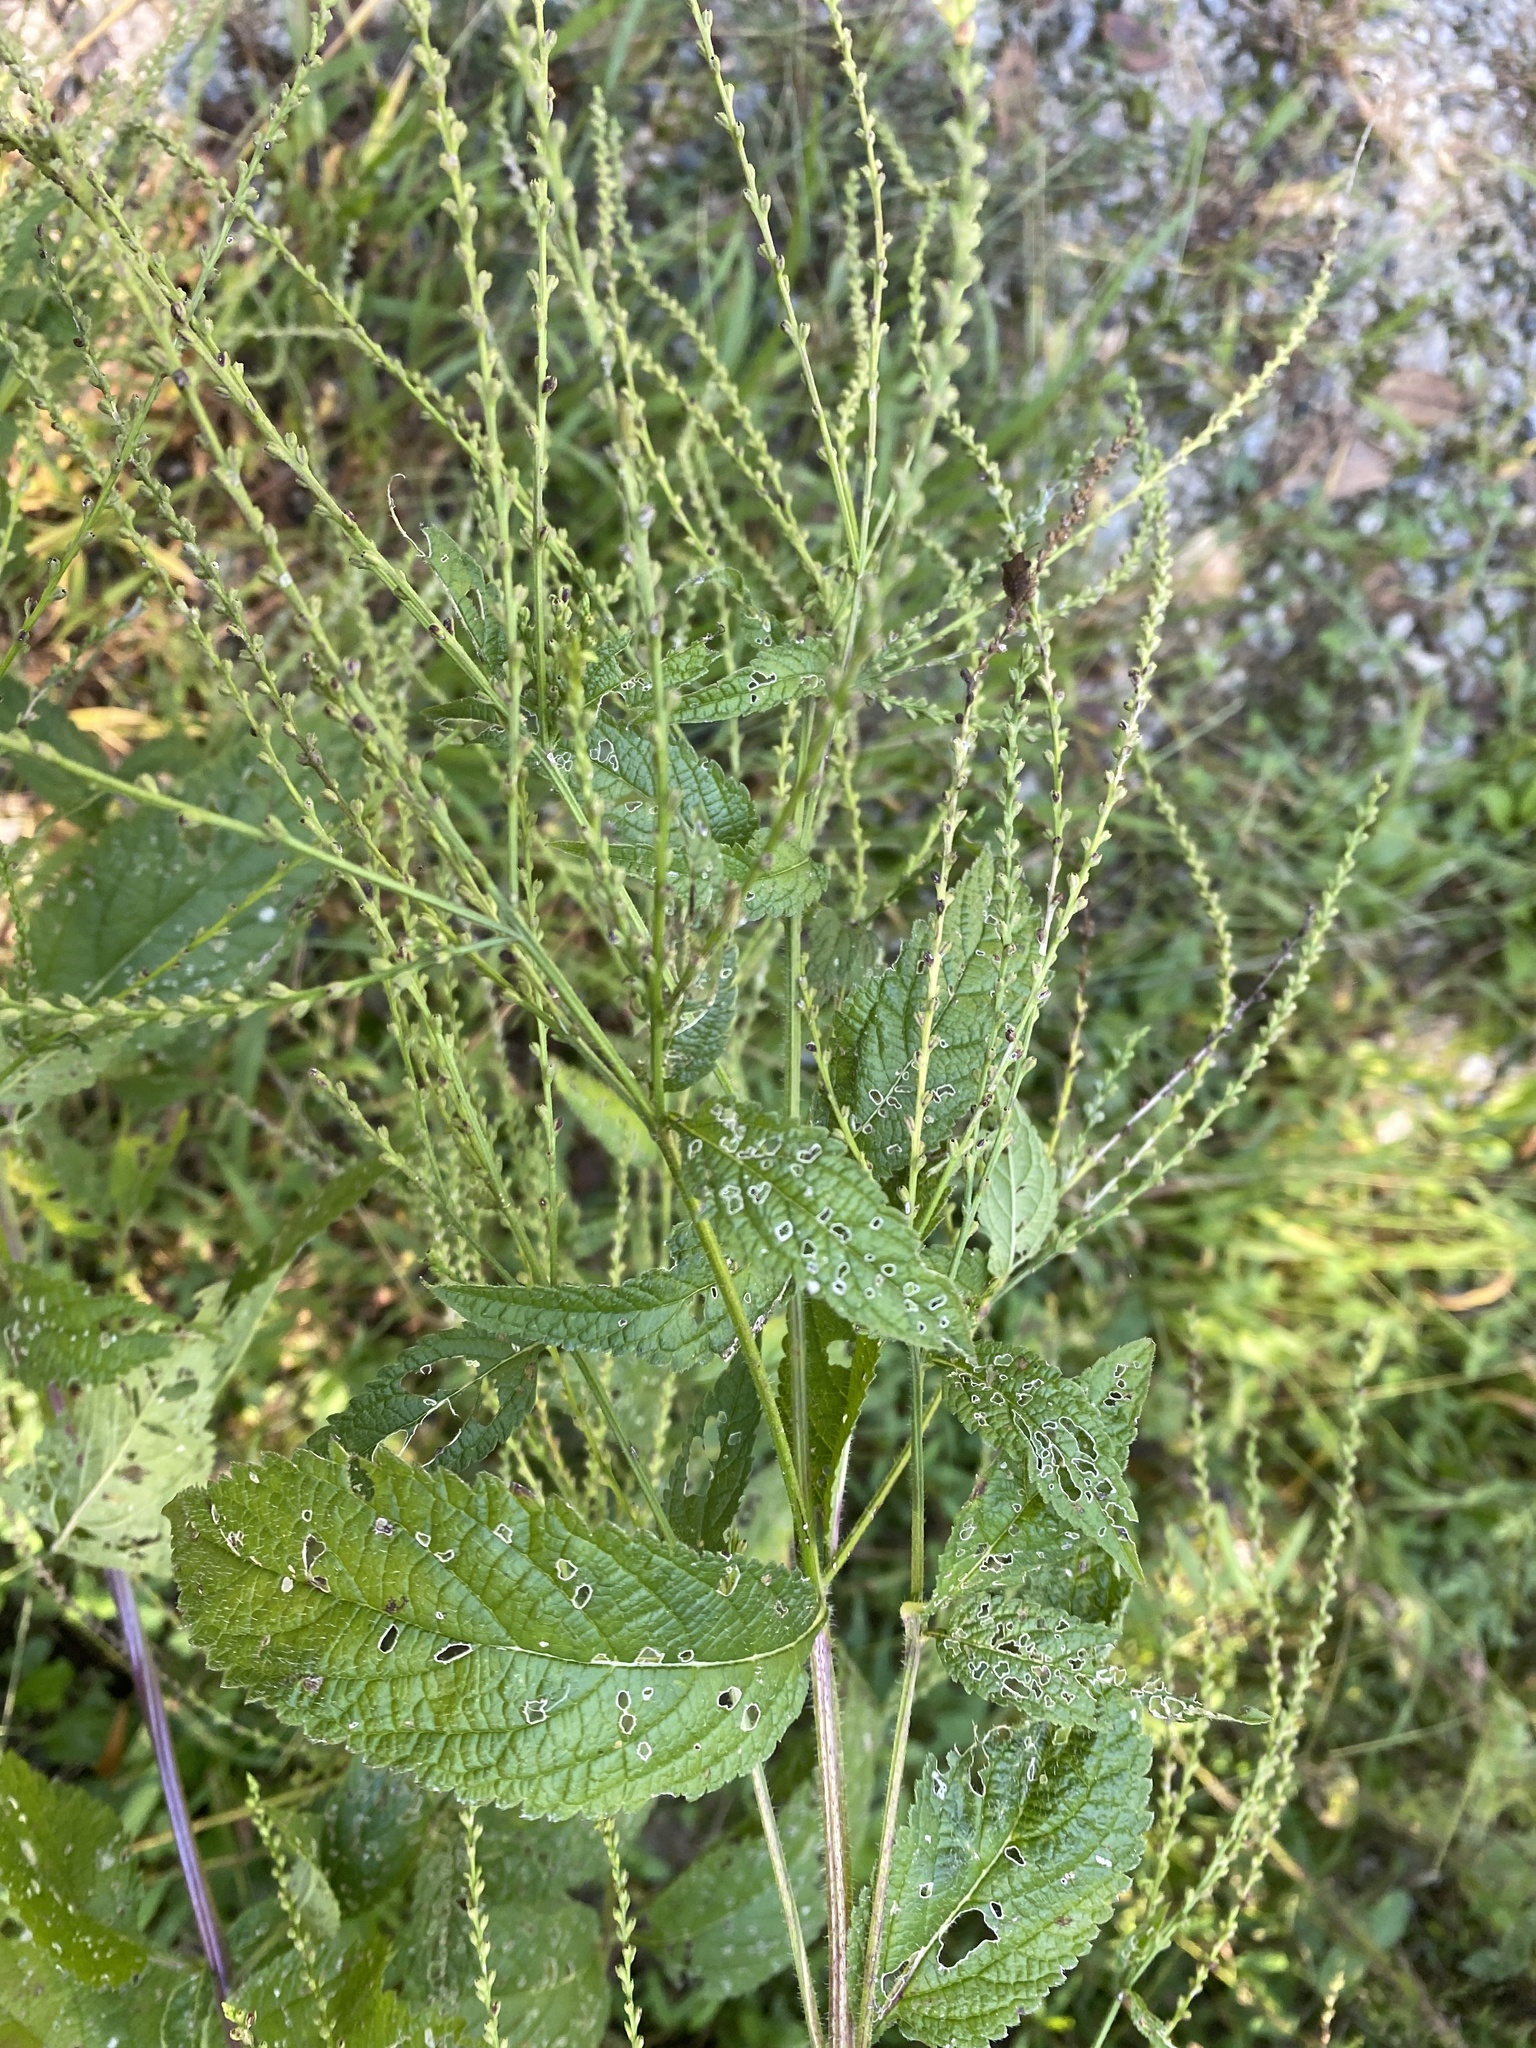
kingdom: Plantae
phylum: Tracheophyta
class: Magnoliopsida
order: Lamiales
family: Verbenaceae
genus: Verbena
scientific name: Verbena urticifolia
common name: Nettle-leaved vervain
